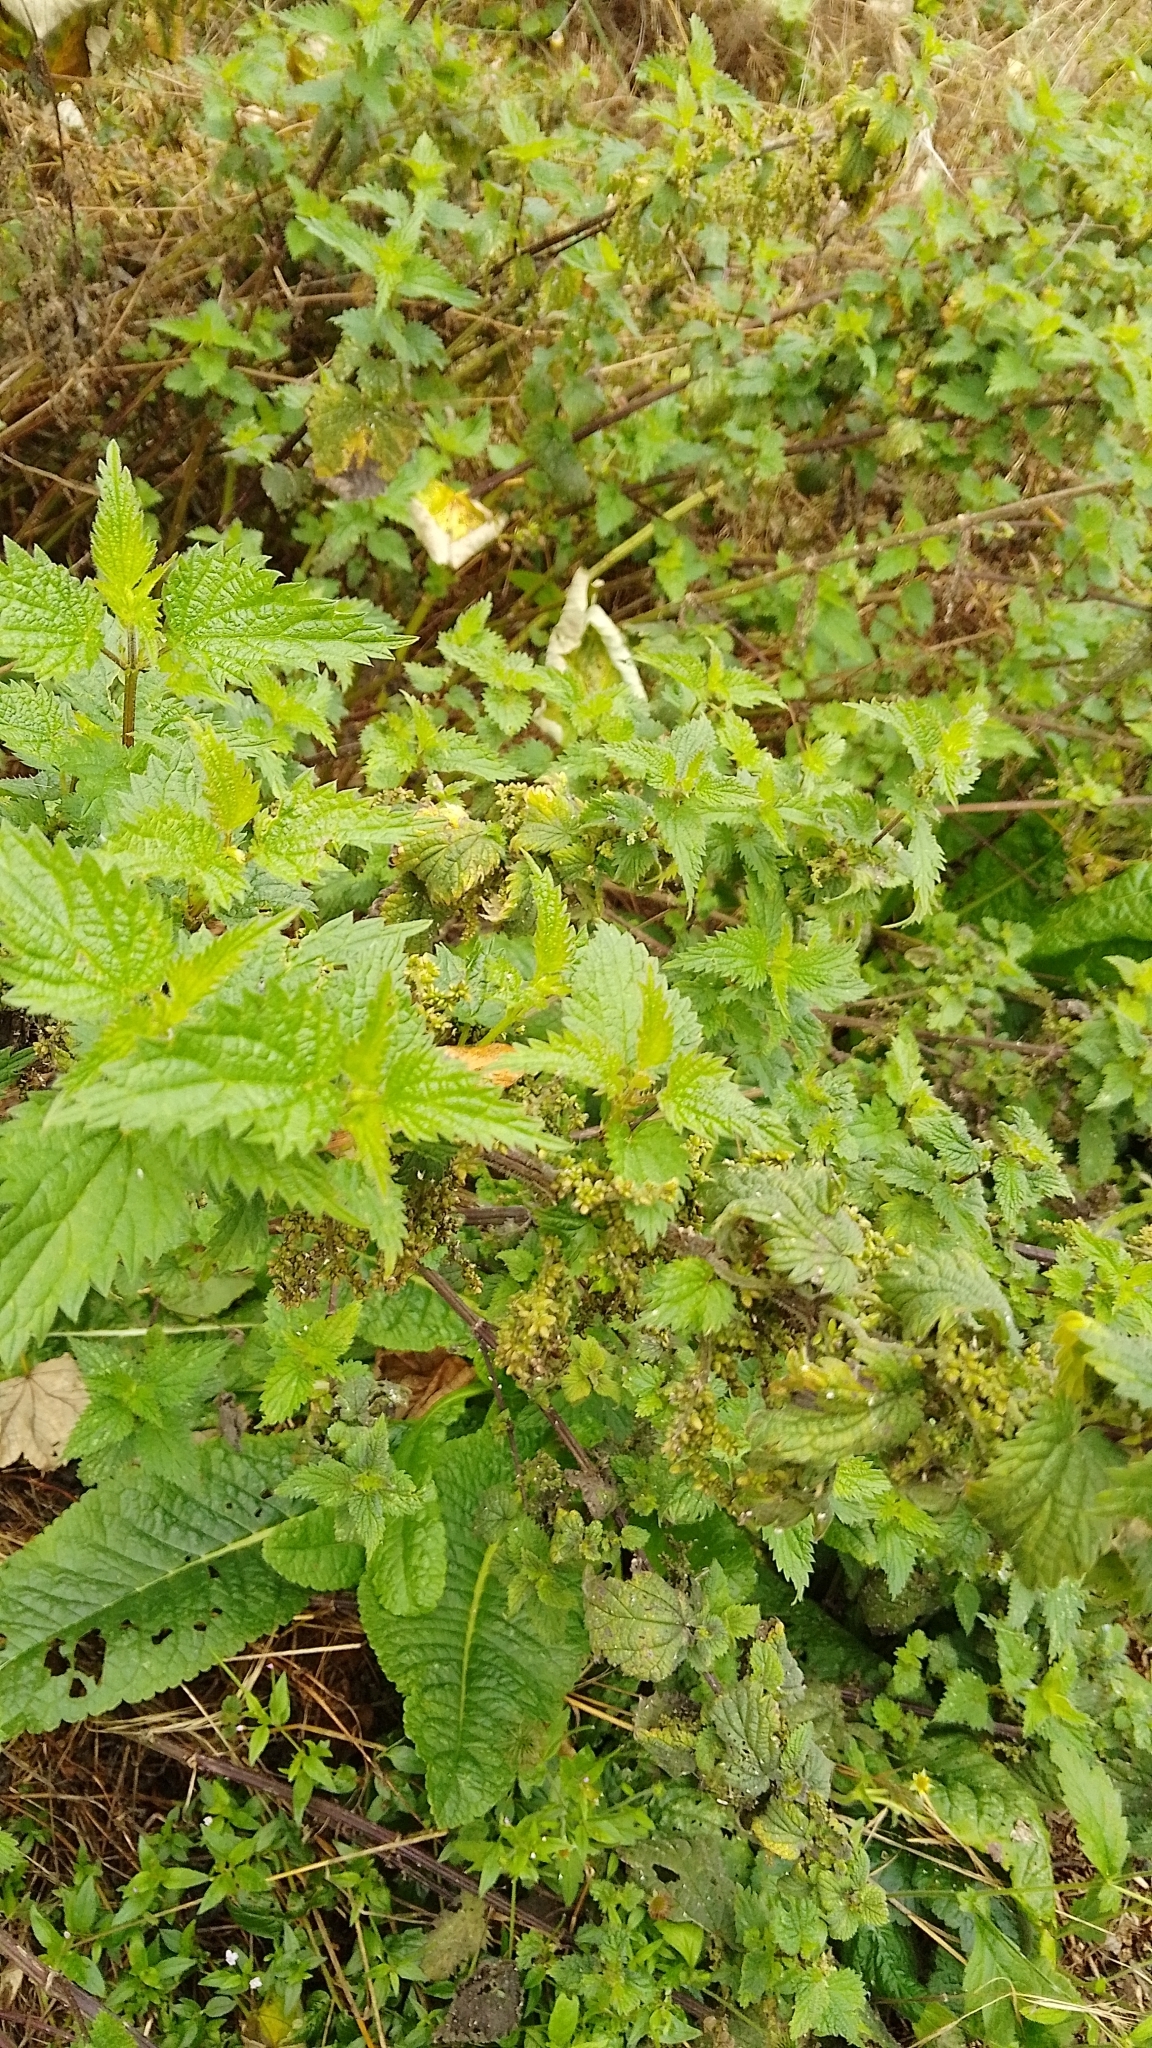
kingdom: Plantae
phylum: Tracheophyta
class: Magnoliopsida
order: Rosales
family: Urticaceae
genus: Urtica
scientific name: Urtica dioica
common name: Common nettle
